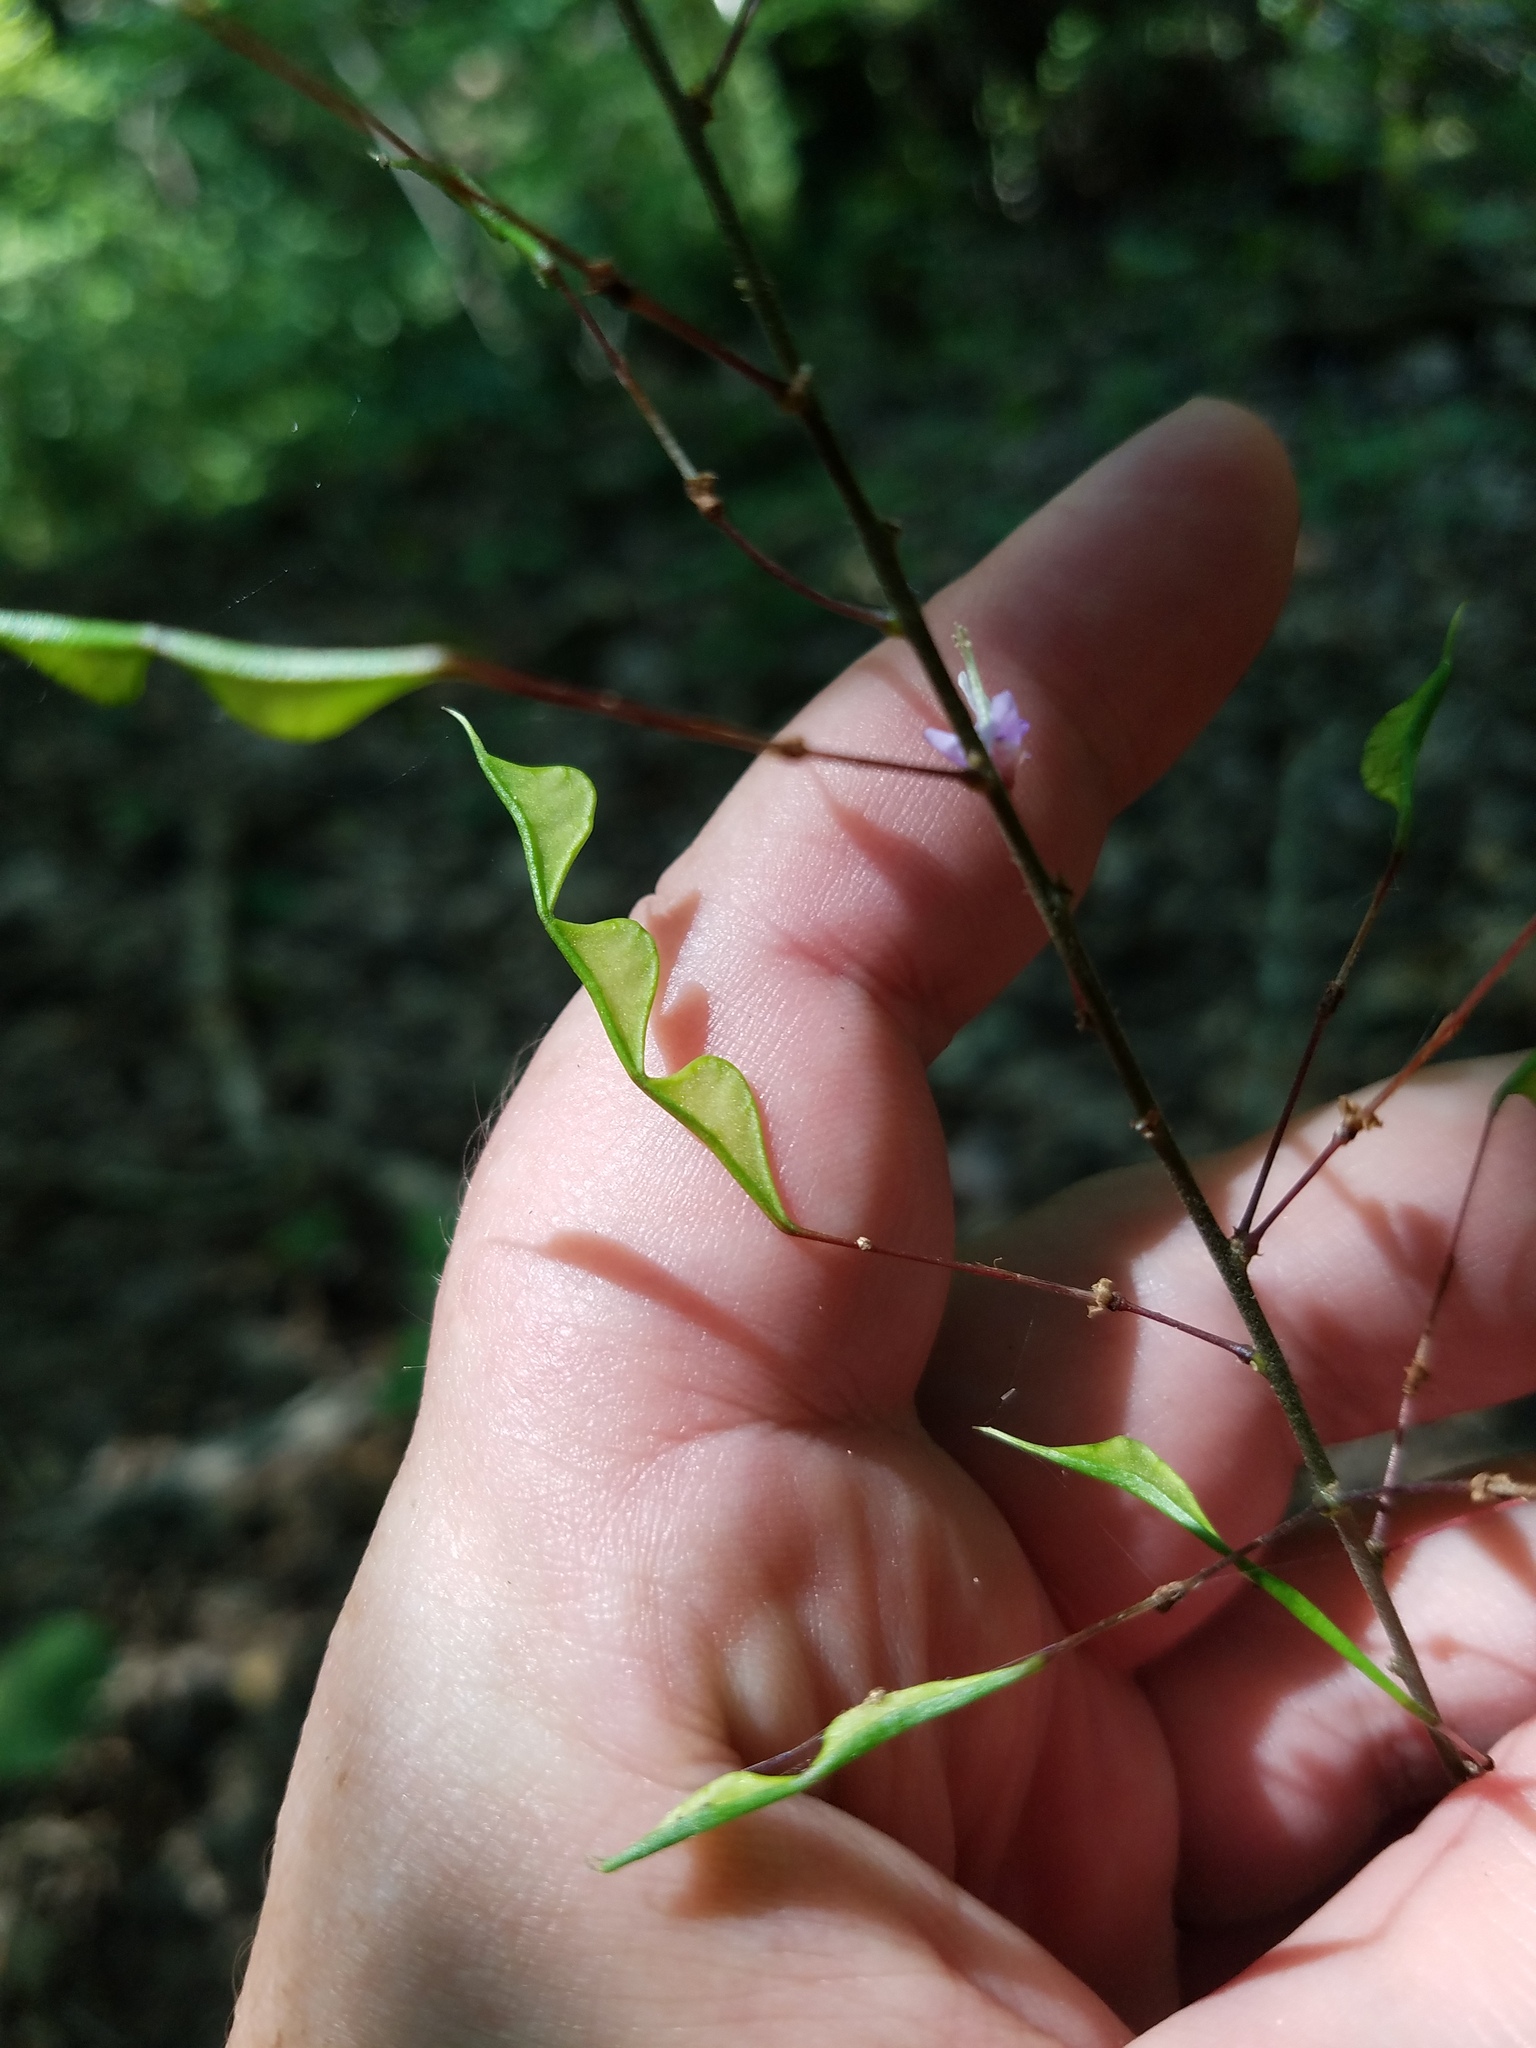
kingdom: Plantae
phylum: Tracheophyta
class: Magnoliopsida
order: Fabales
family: Fabaceae
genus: Hylodesmum
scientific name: Hylodesmum nudiflorum
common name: Bare-stemmed tick-trefoil
